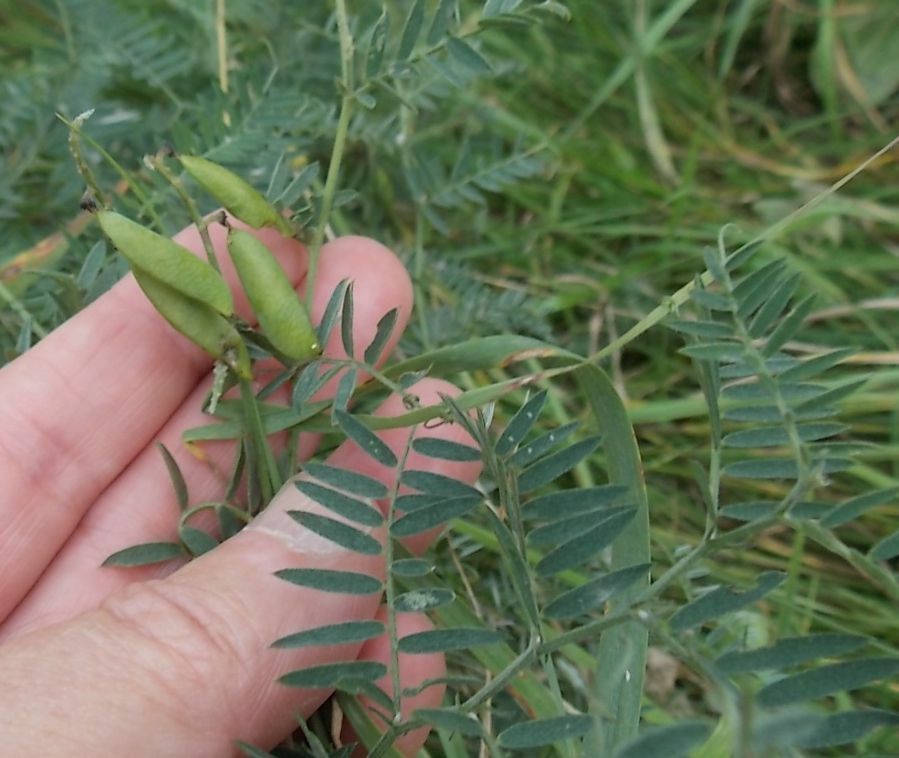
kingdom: Plantae
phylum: Tracheophyta
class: Magnoliopsida
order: Fabales
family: Fabaceae
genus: Vicia
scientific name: Vicia cracca
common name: Bird vetch
